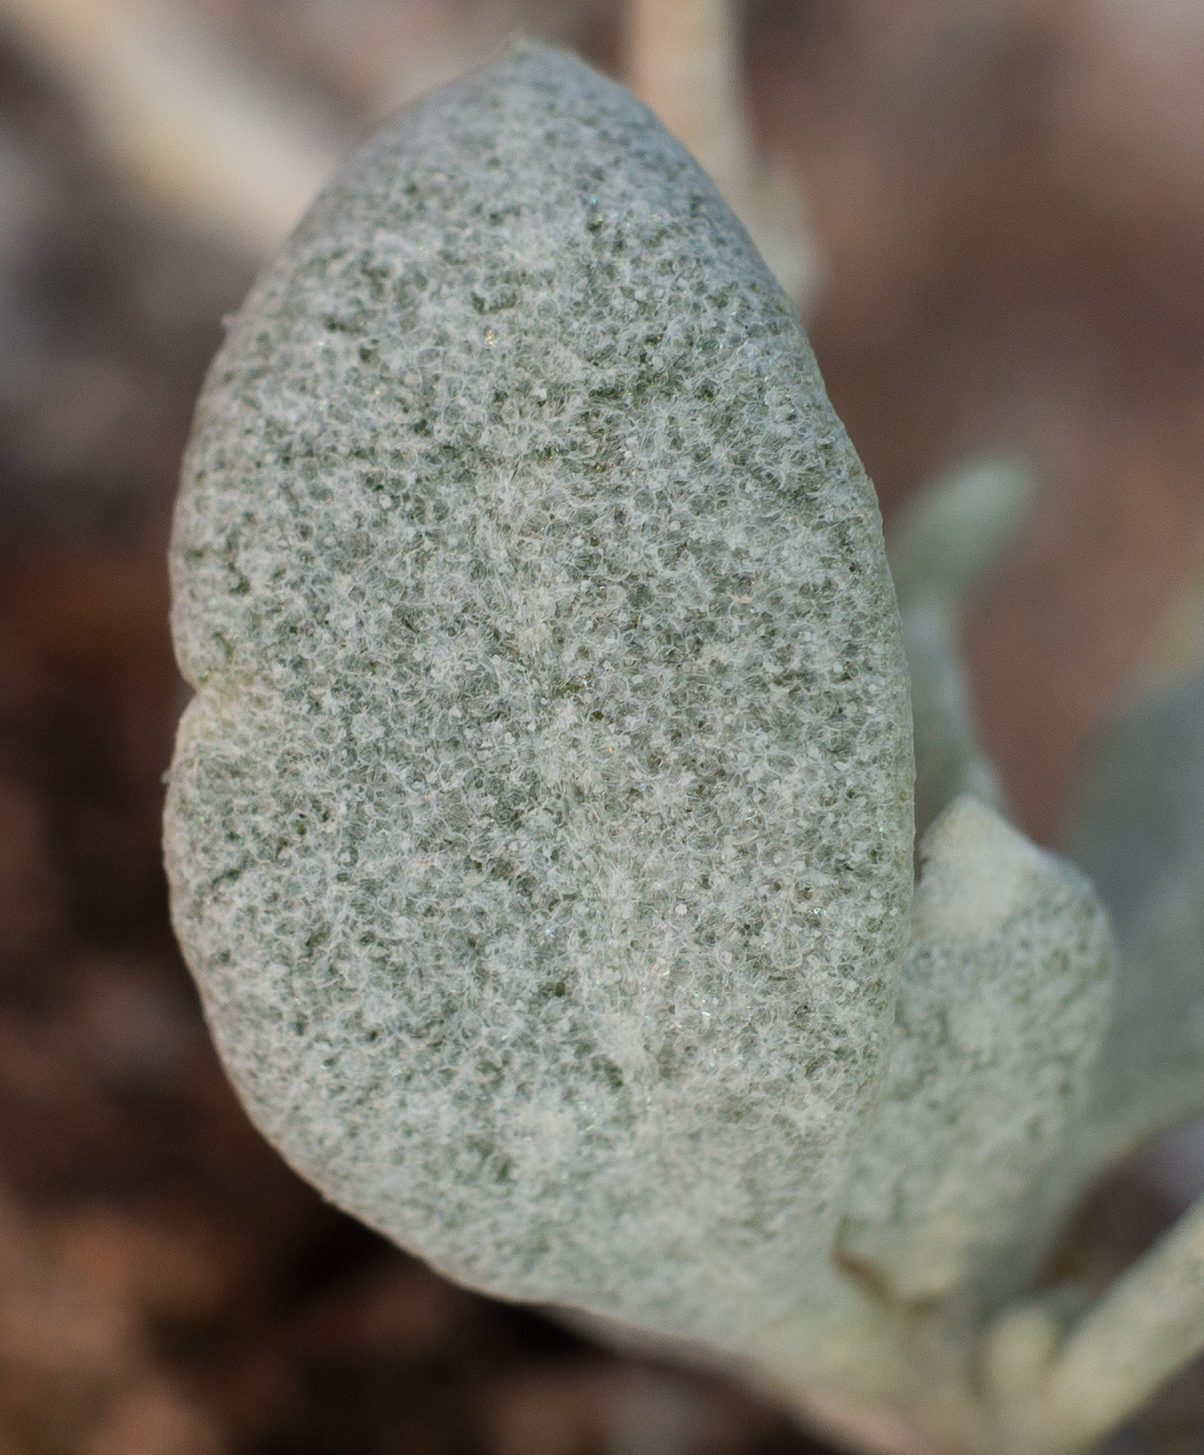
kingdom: Plantae
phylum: Tracheophyta
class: Magnoliopsida
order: Caryophyllales
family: Amaranthaceae
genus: Atriplex
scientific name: Atriplex confertifolia
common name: Shadscale
